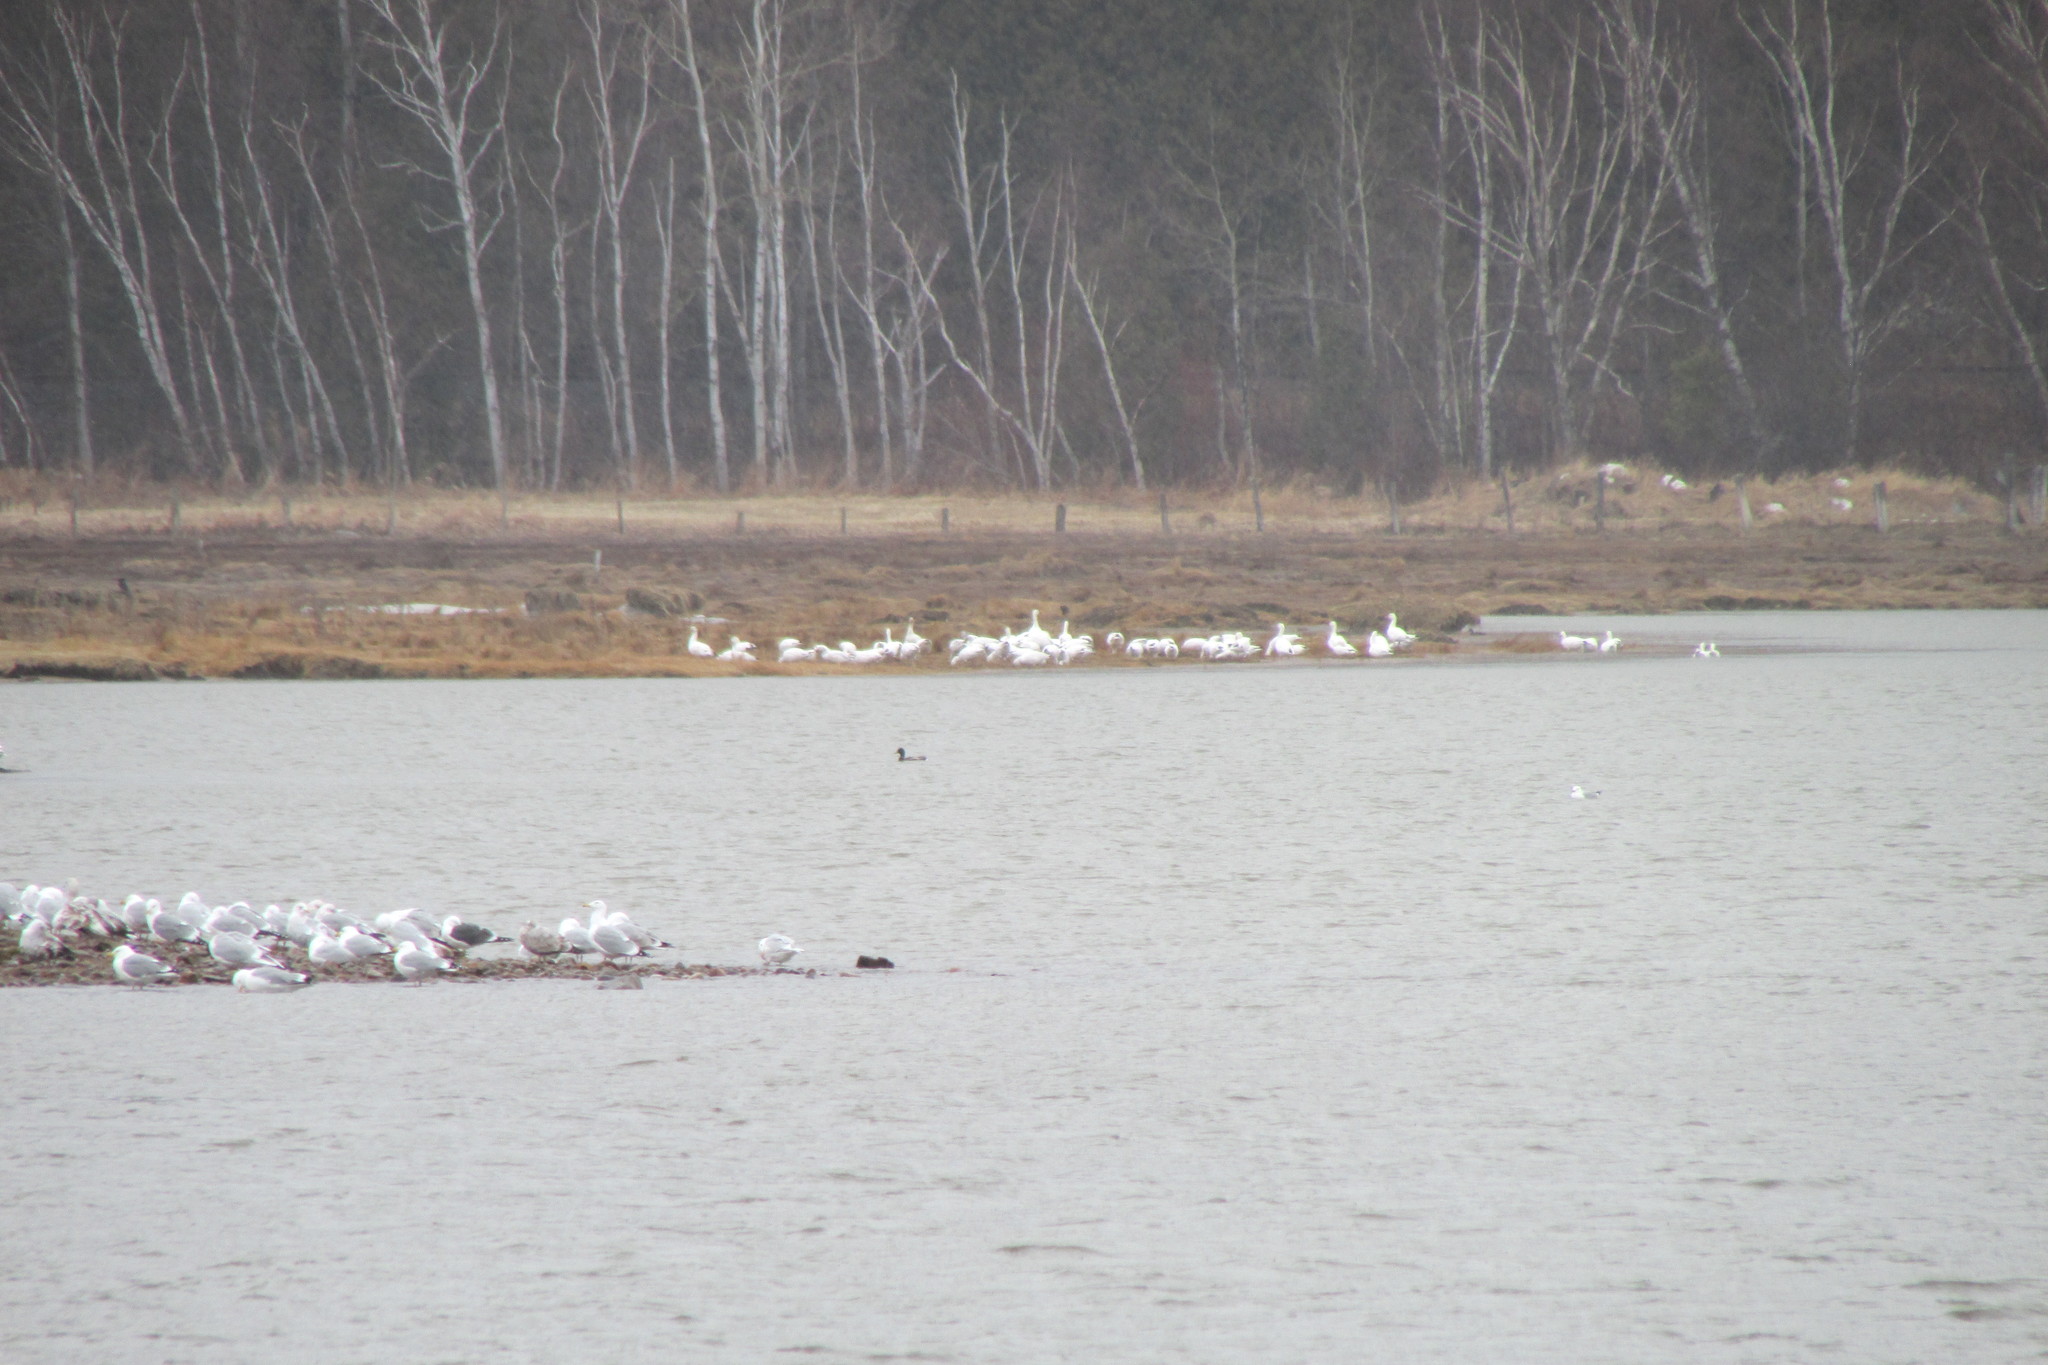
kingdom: Animalia
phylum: Chordata
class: Aves
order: Anseriformes
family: Anatidae
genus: Anser
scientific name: Anser caerulescens
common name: Snow goose
